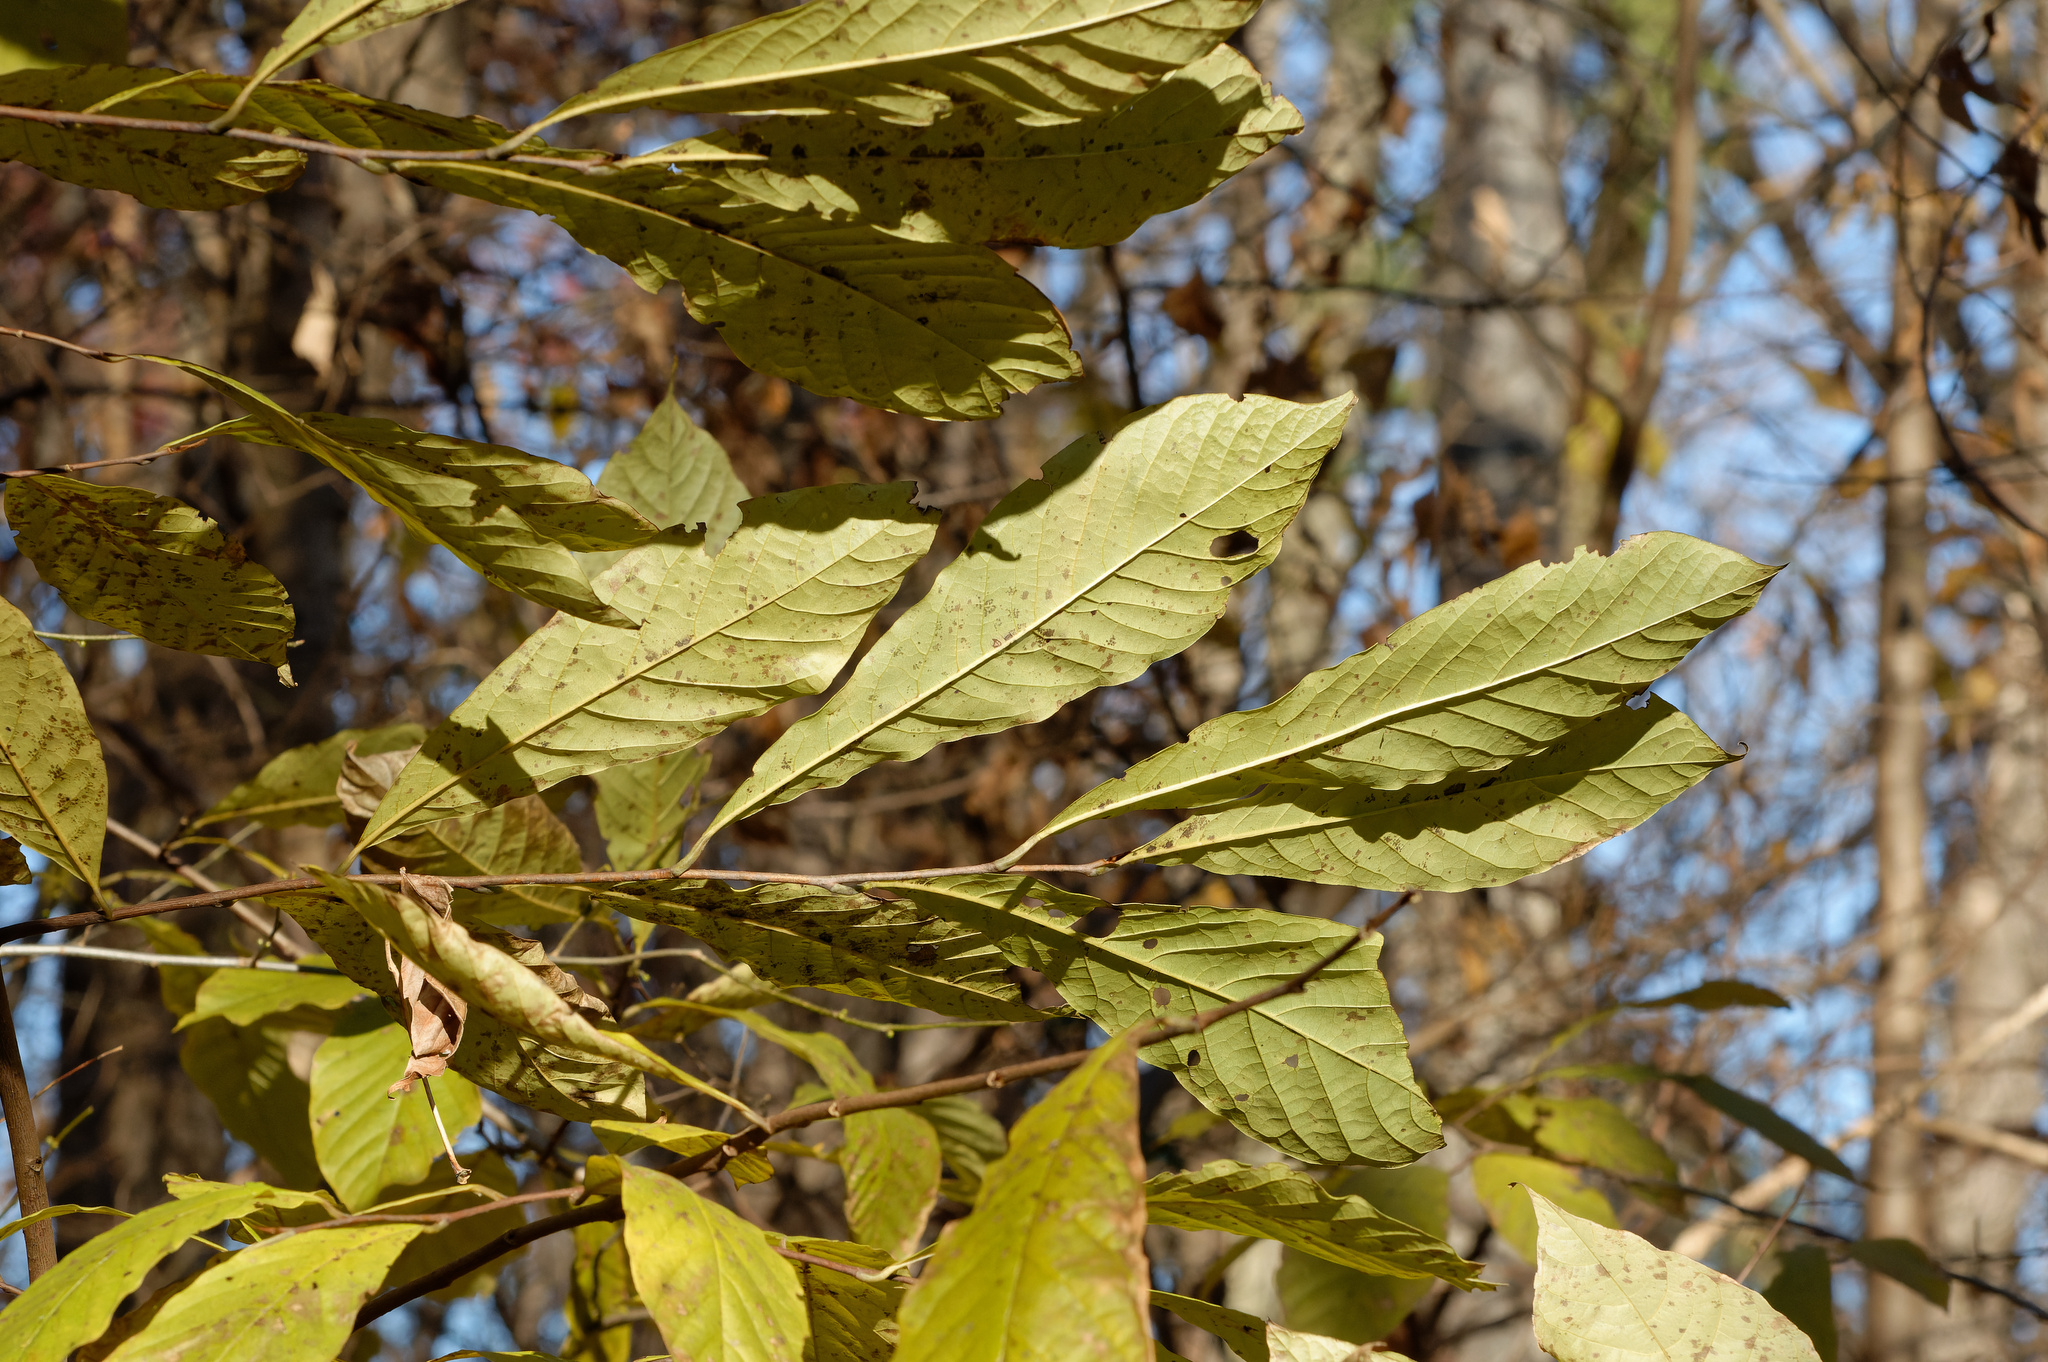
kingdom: Plantae
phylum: Tracheophyta
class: Magnoliopsida
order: Magnoliales
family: Annonaceae
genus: Asimina
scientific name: Asimina triloba
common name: Dog-banana
